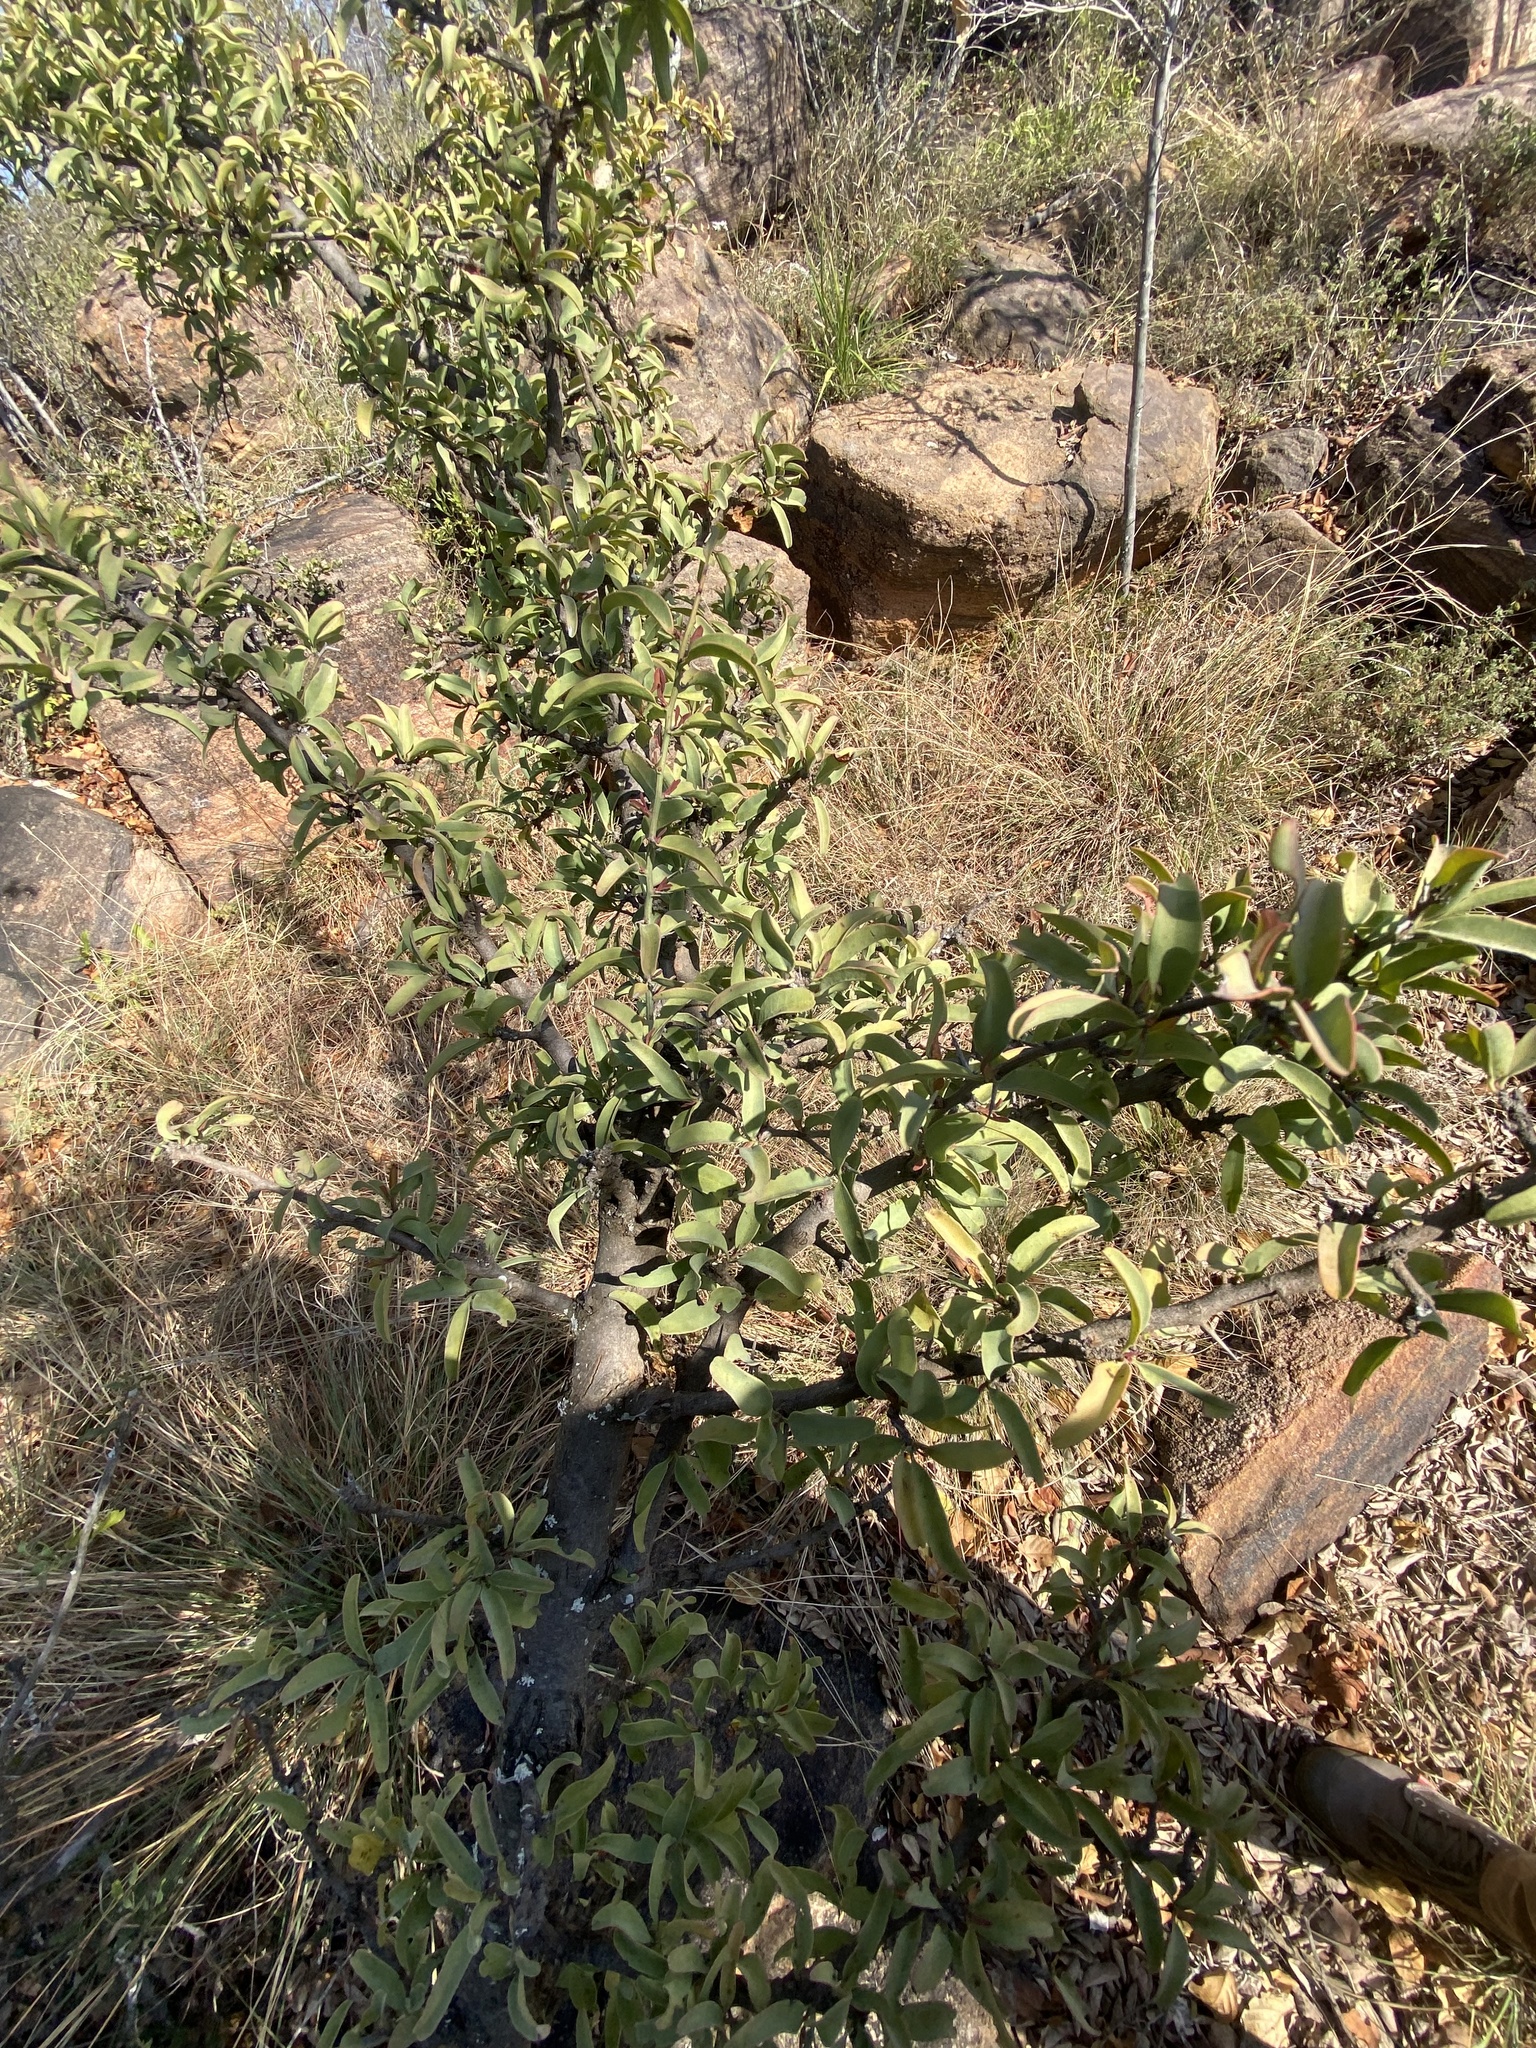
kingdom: Plantae
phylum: Tracheophyta
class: Magnoliopsida
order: Santalales
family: Ximeniaceae
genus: Ximenia
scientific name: Ximenia caffra
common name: Large sourplum
